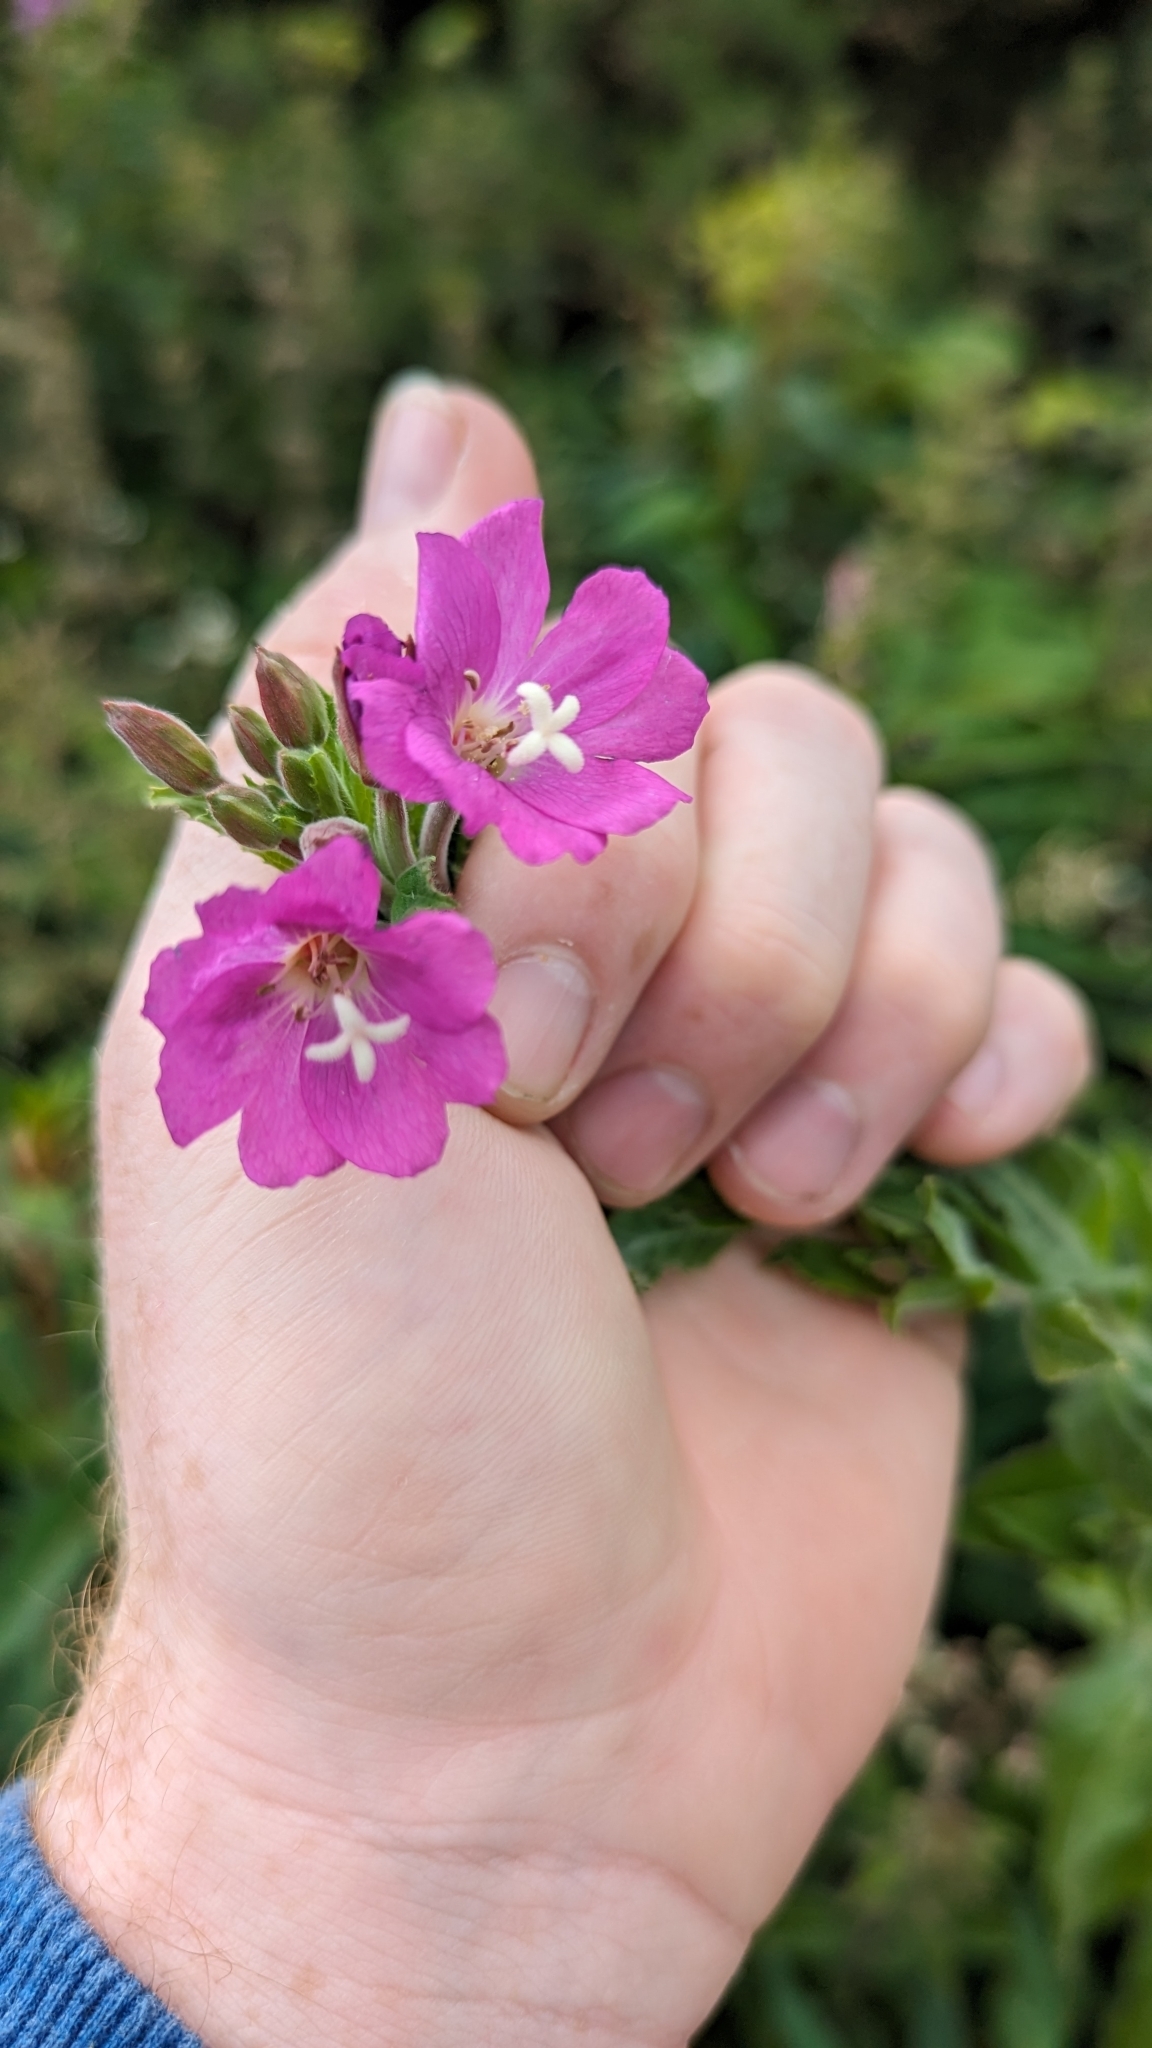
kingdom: Plantae
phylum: Tracheophyta
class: Magnoliopsida
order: Myrtales
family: Onagraceae
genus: Epilobium
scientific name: Epilobium hirsutum
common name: Great willowherb
